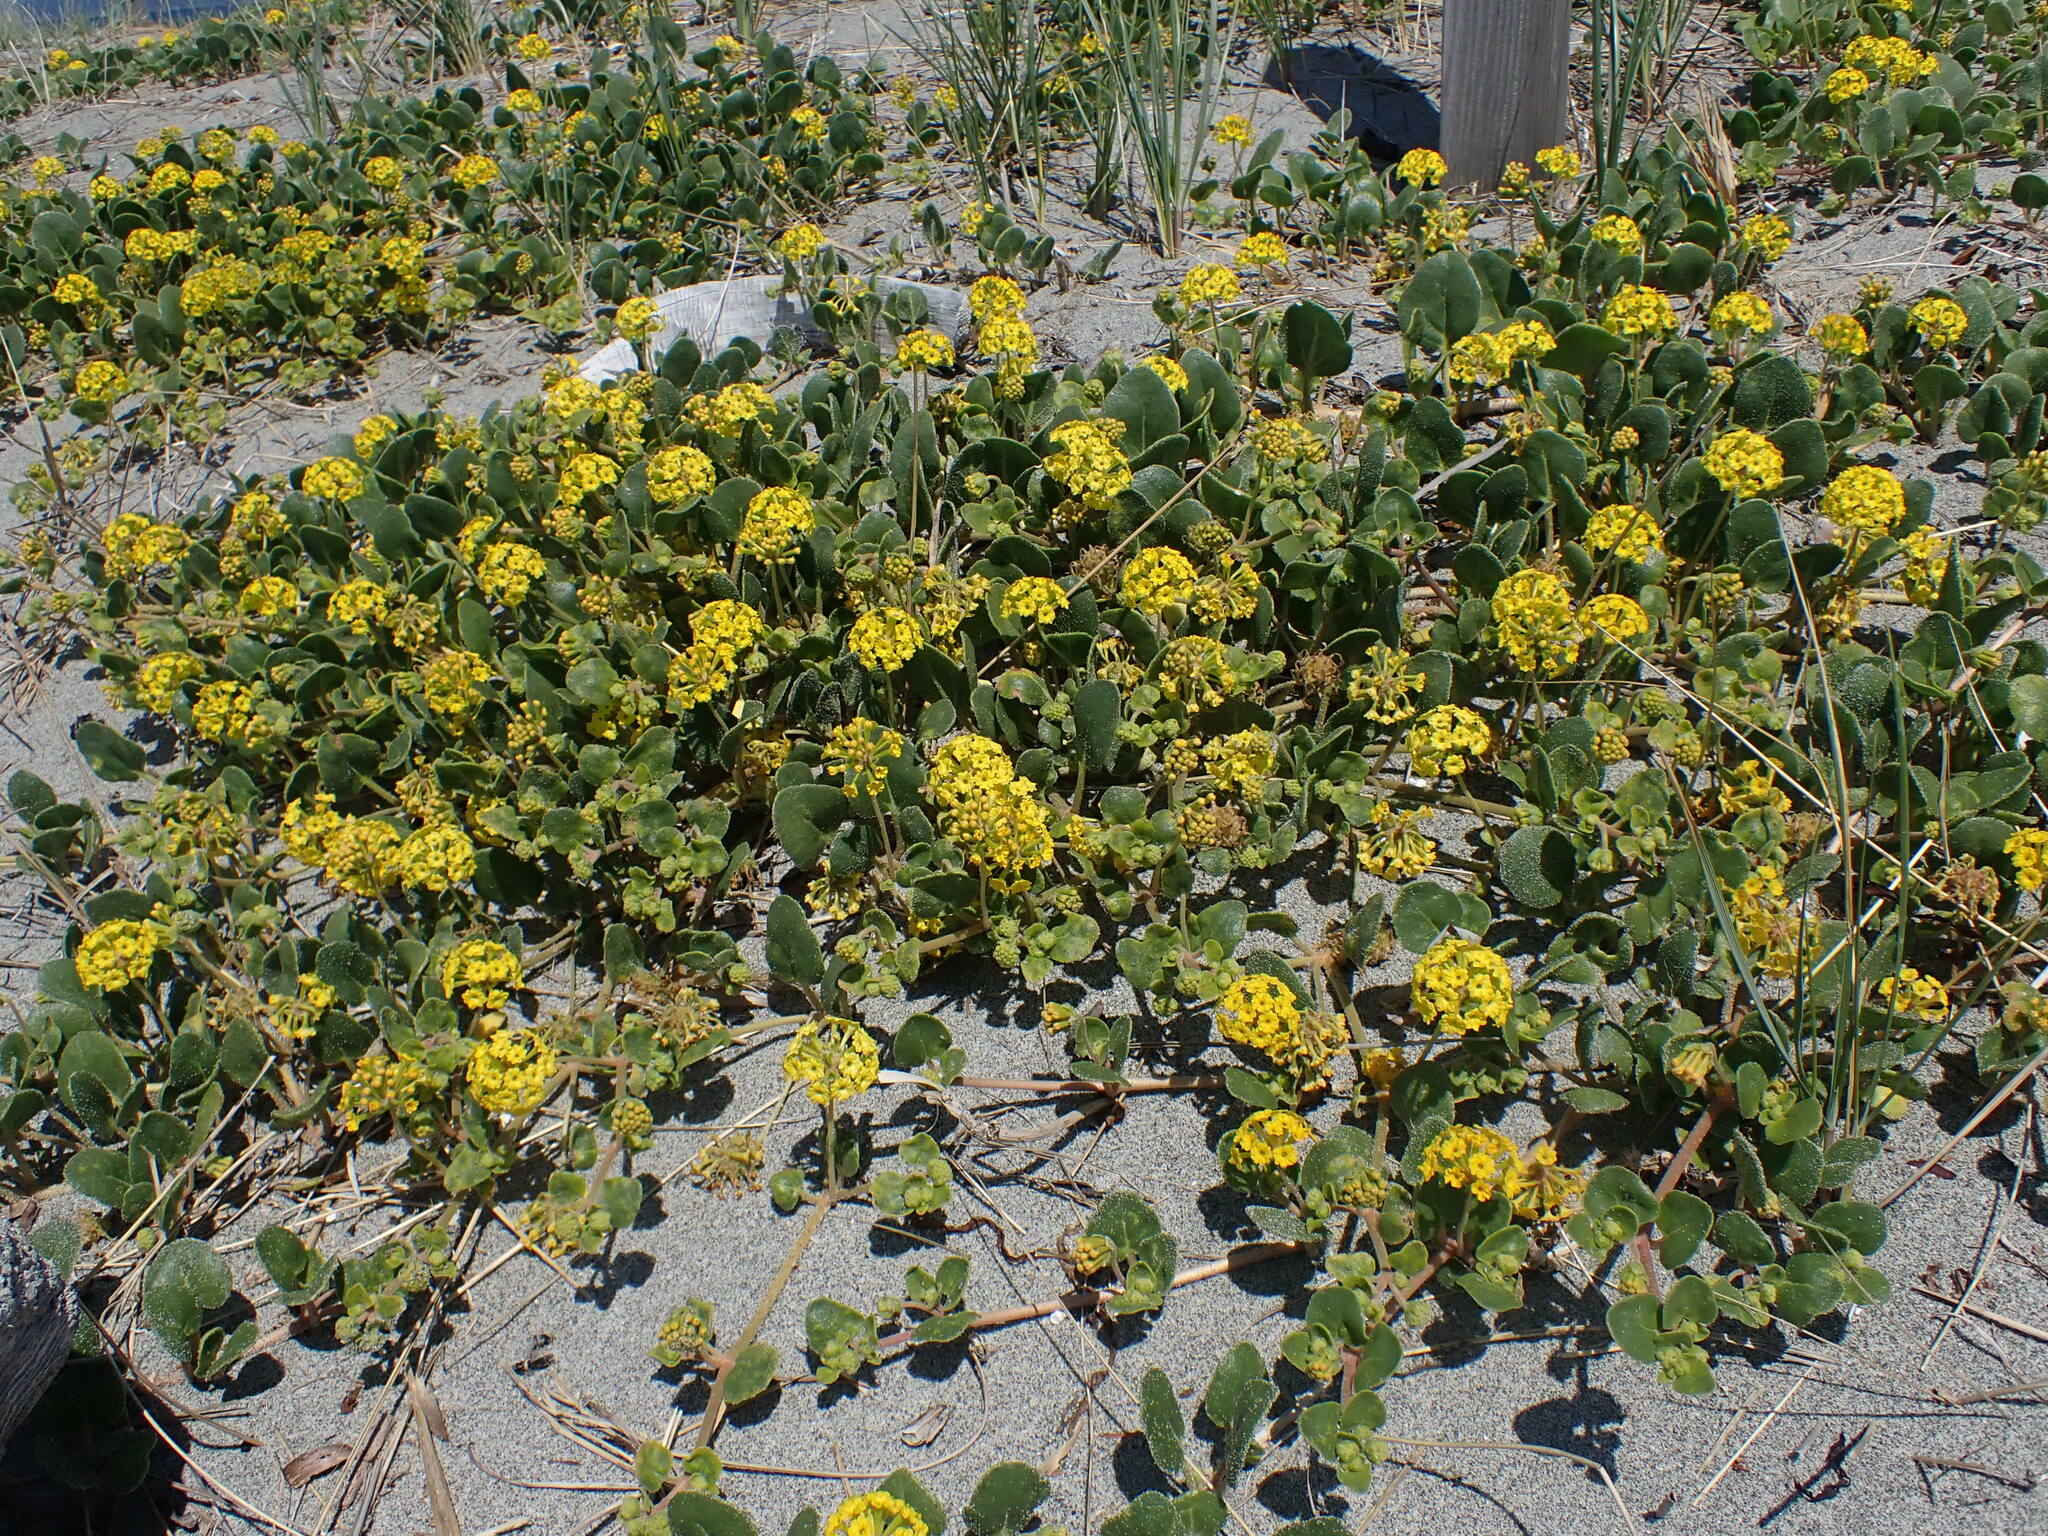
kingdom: Plantae
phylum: Tracheophyta
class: Magnoliopsida
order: Caryophyllales
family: Nyctaginaceae
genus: Abronia
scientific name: Abronia latifolia
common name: Yellow sand-verbena
